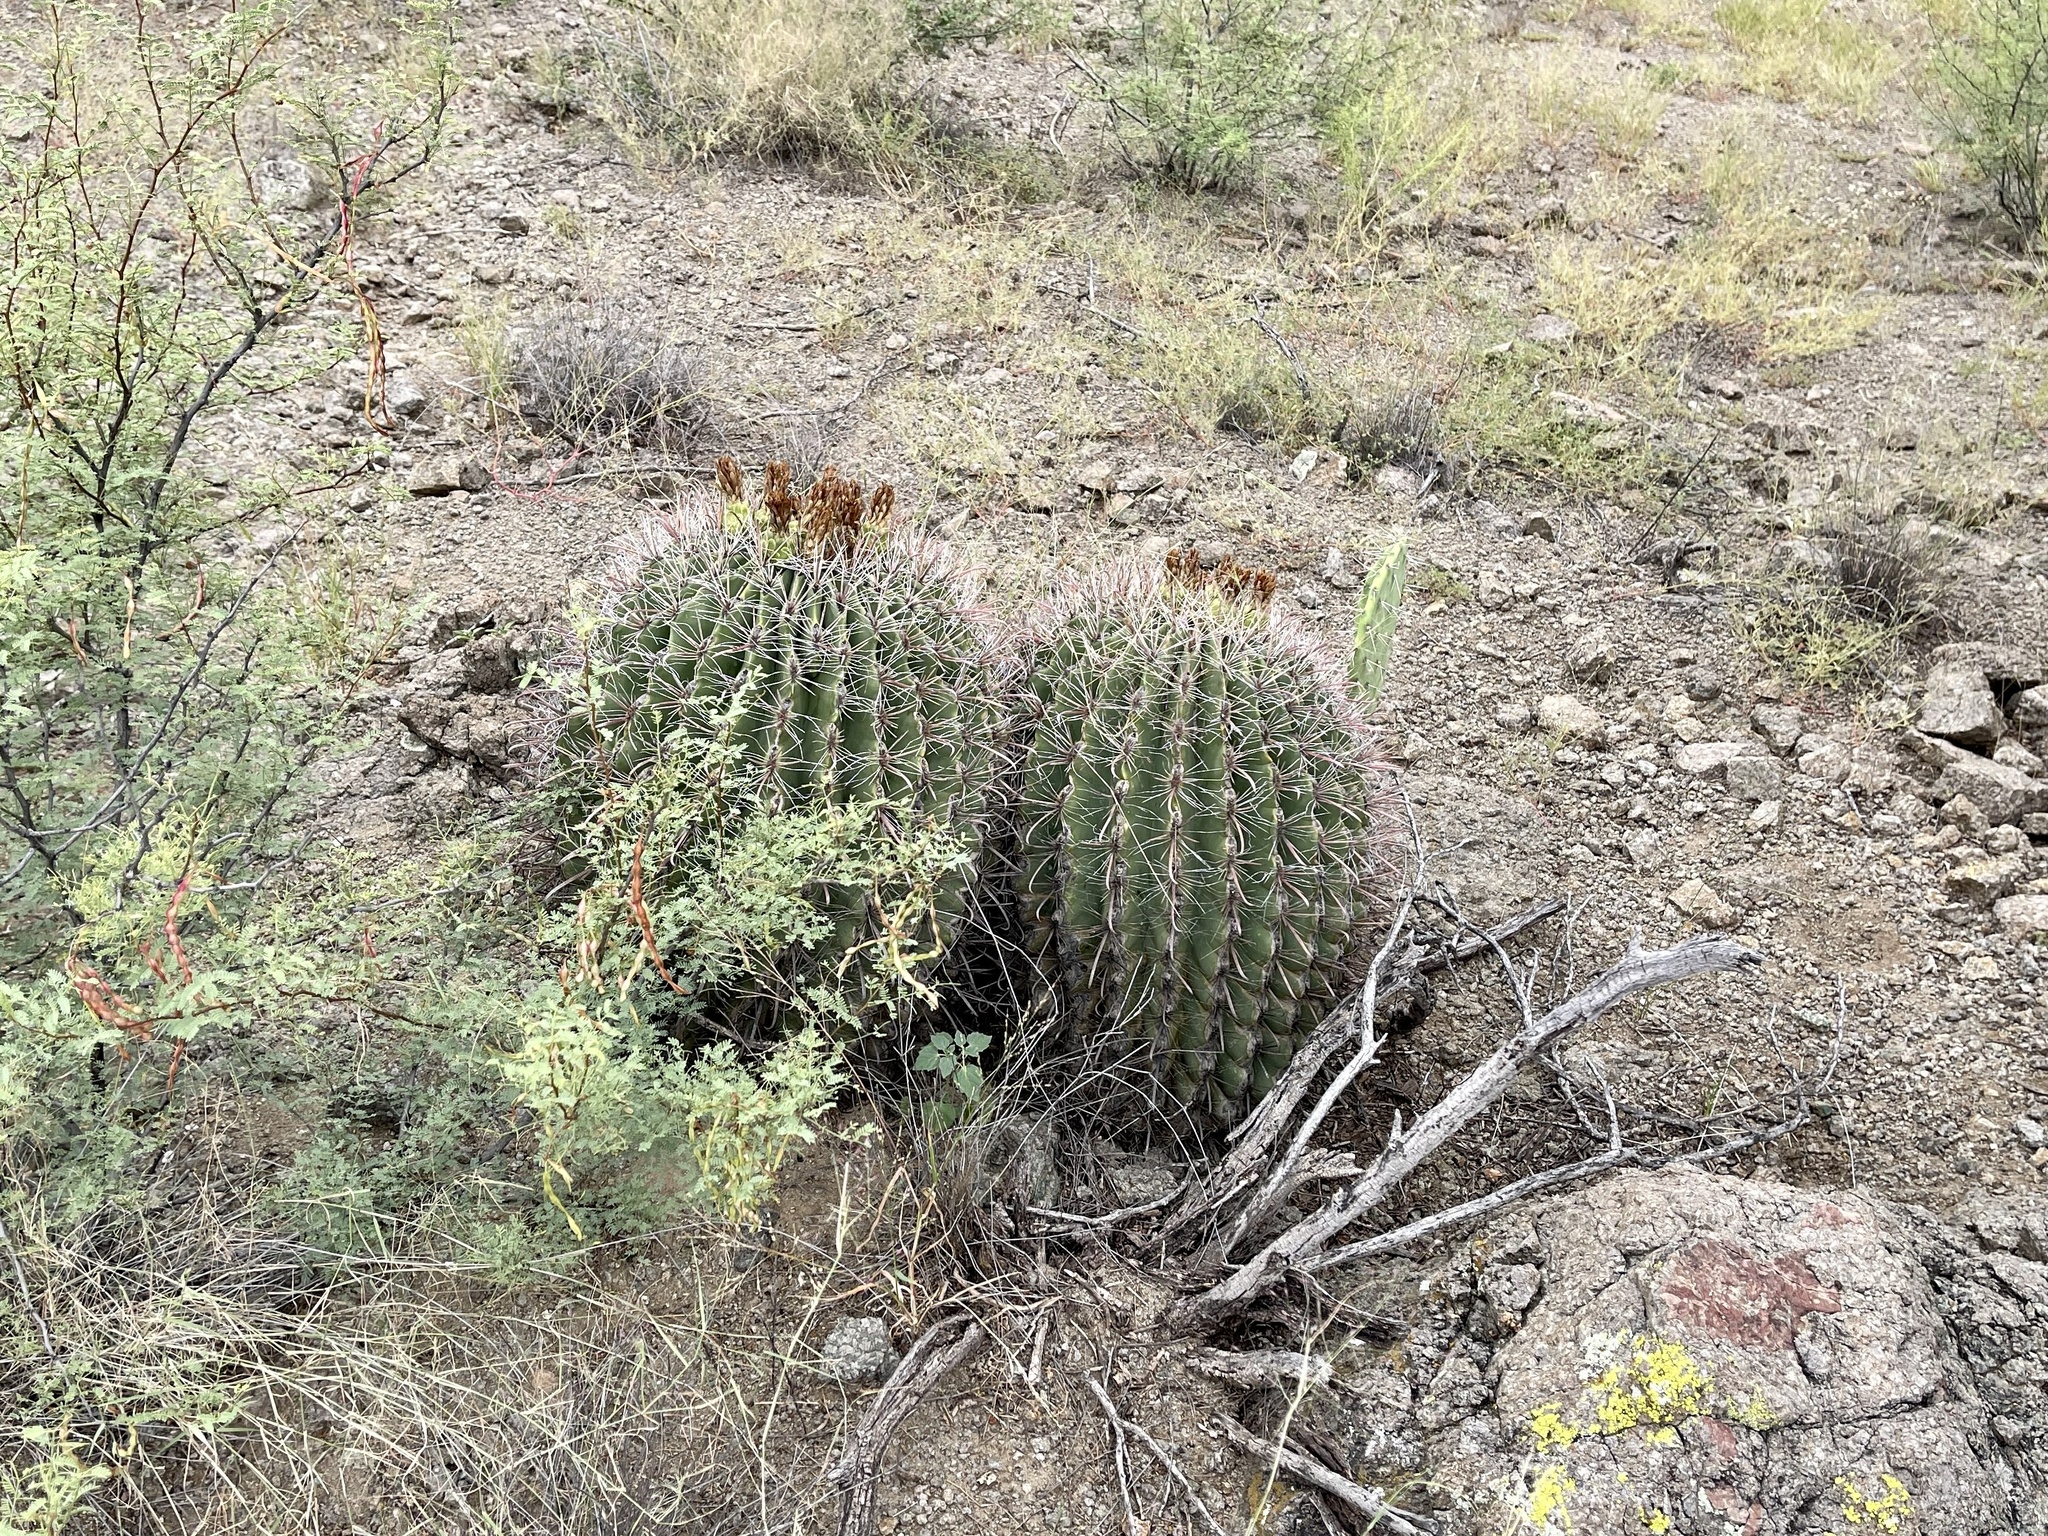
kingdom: Plantae
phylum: Tracheophyta
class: Magnoliopsida
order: Caryophyllales
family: Cactaceae
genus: Ferocactus
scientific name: Ferocactus wislizeni
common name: Candy barrel cactus
